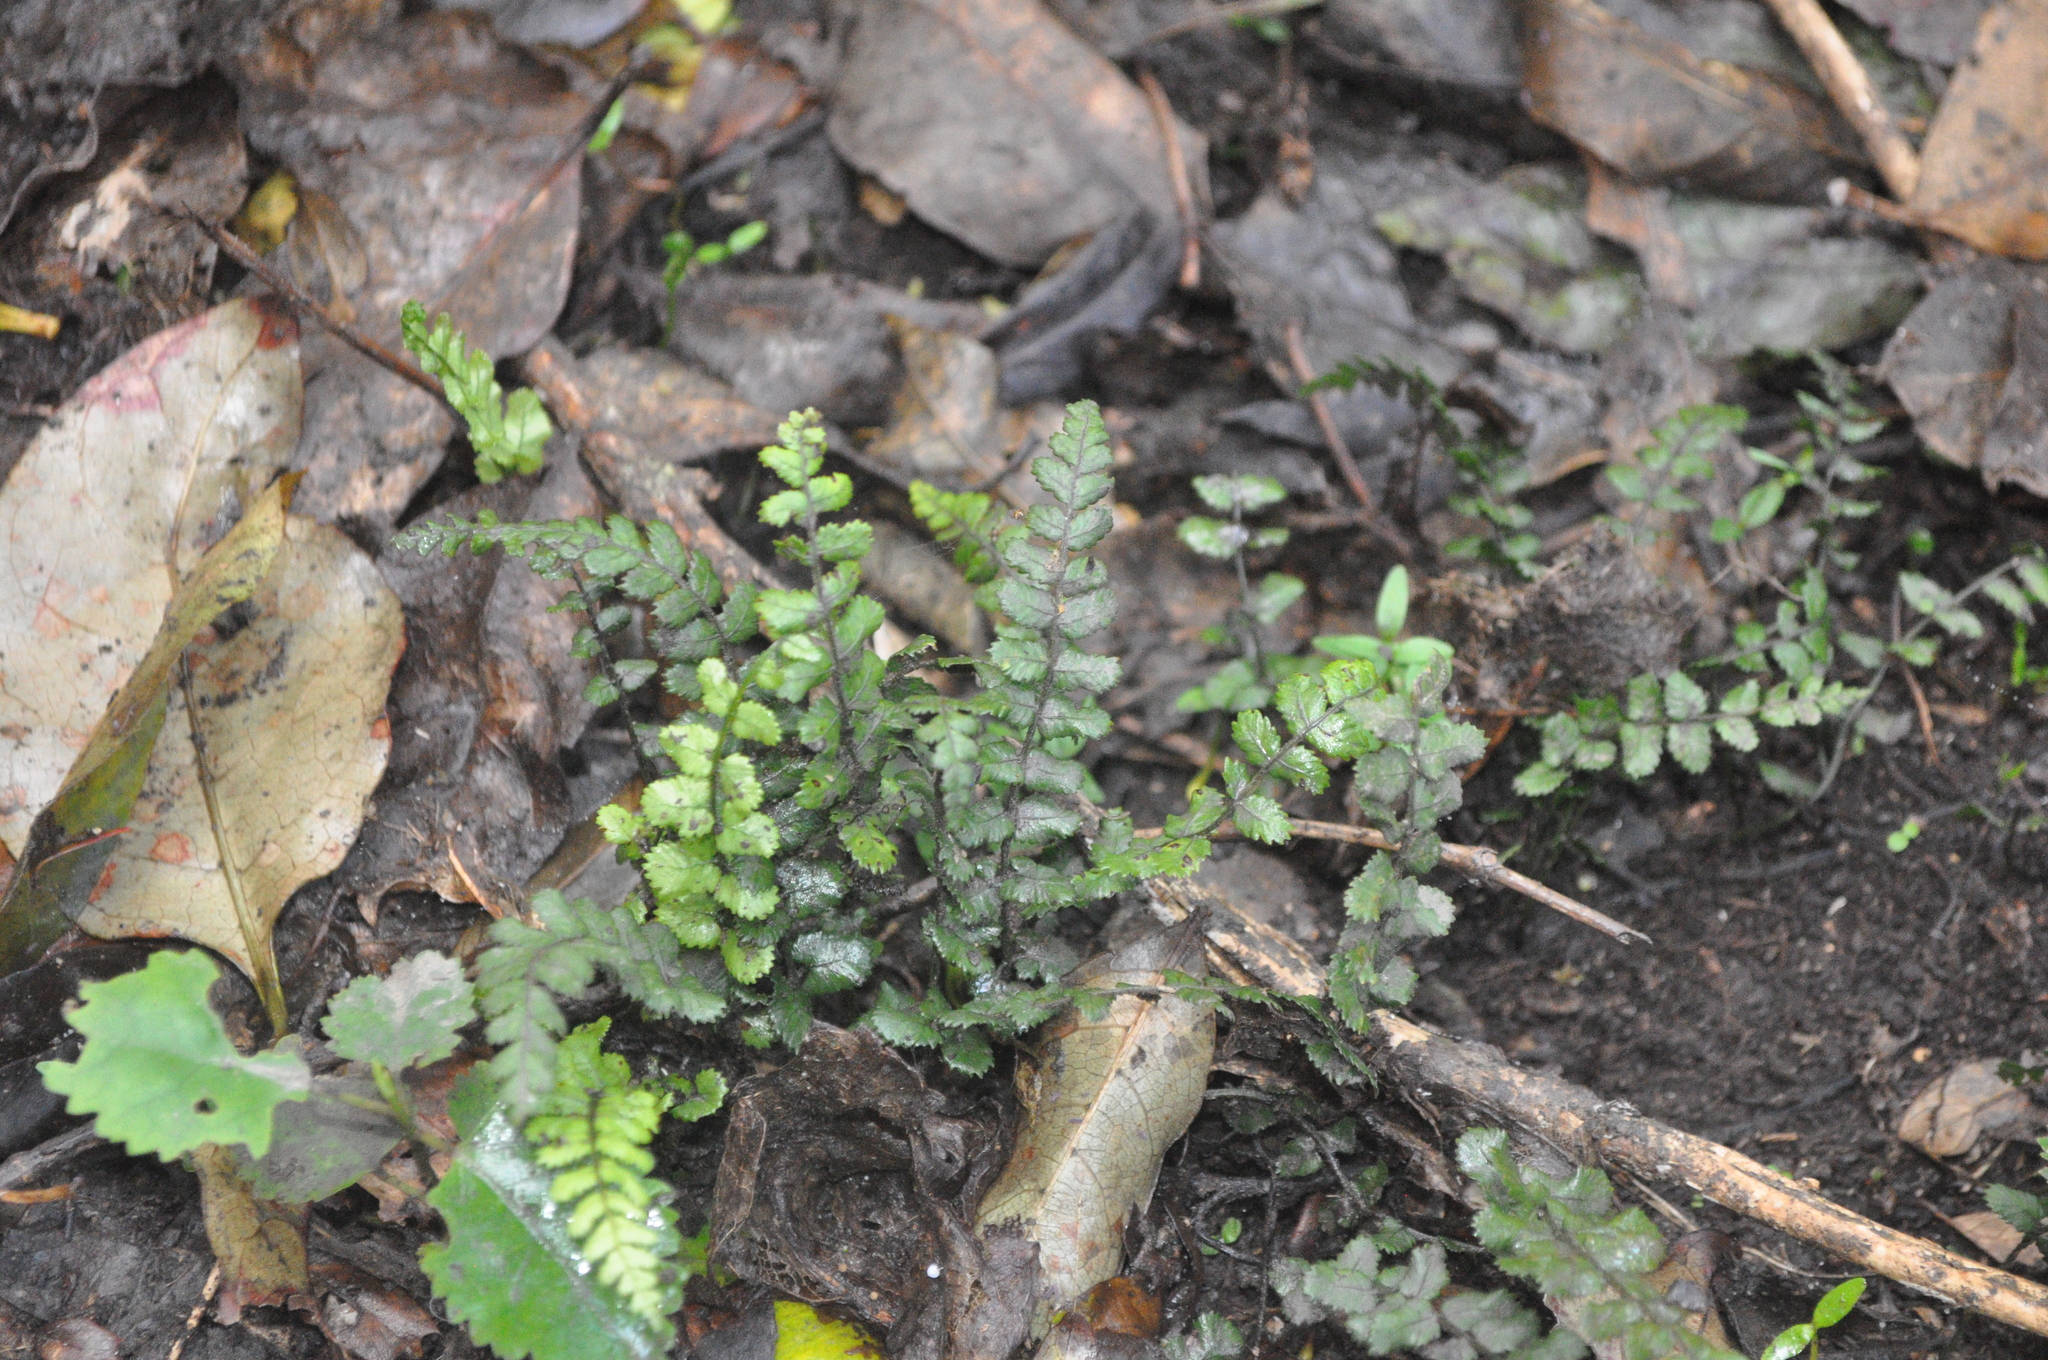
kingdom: Plantae
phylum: Tracheophyta
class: Polypodiopsida
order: Polypodiales
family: Blechnaceae
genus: Icarus
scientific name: Icarus filiformis
